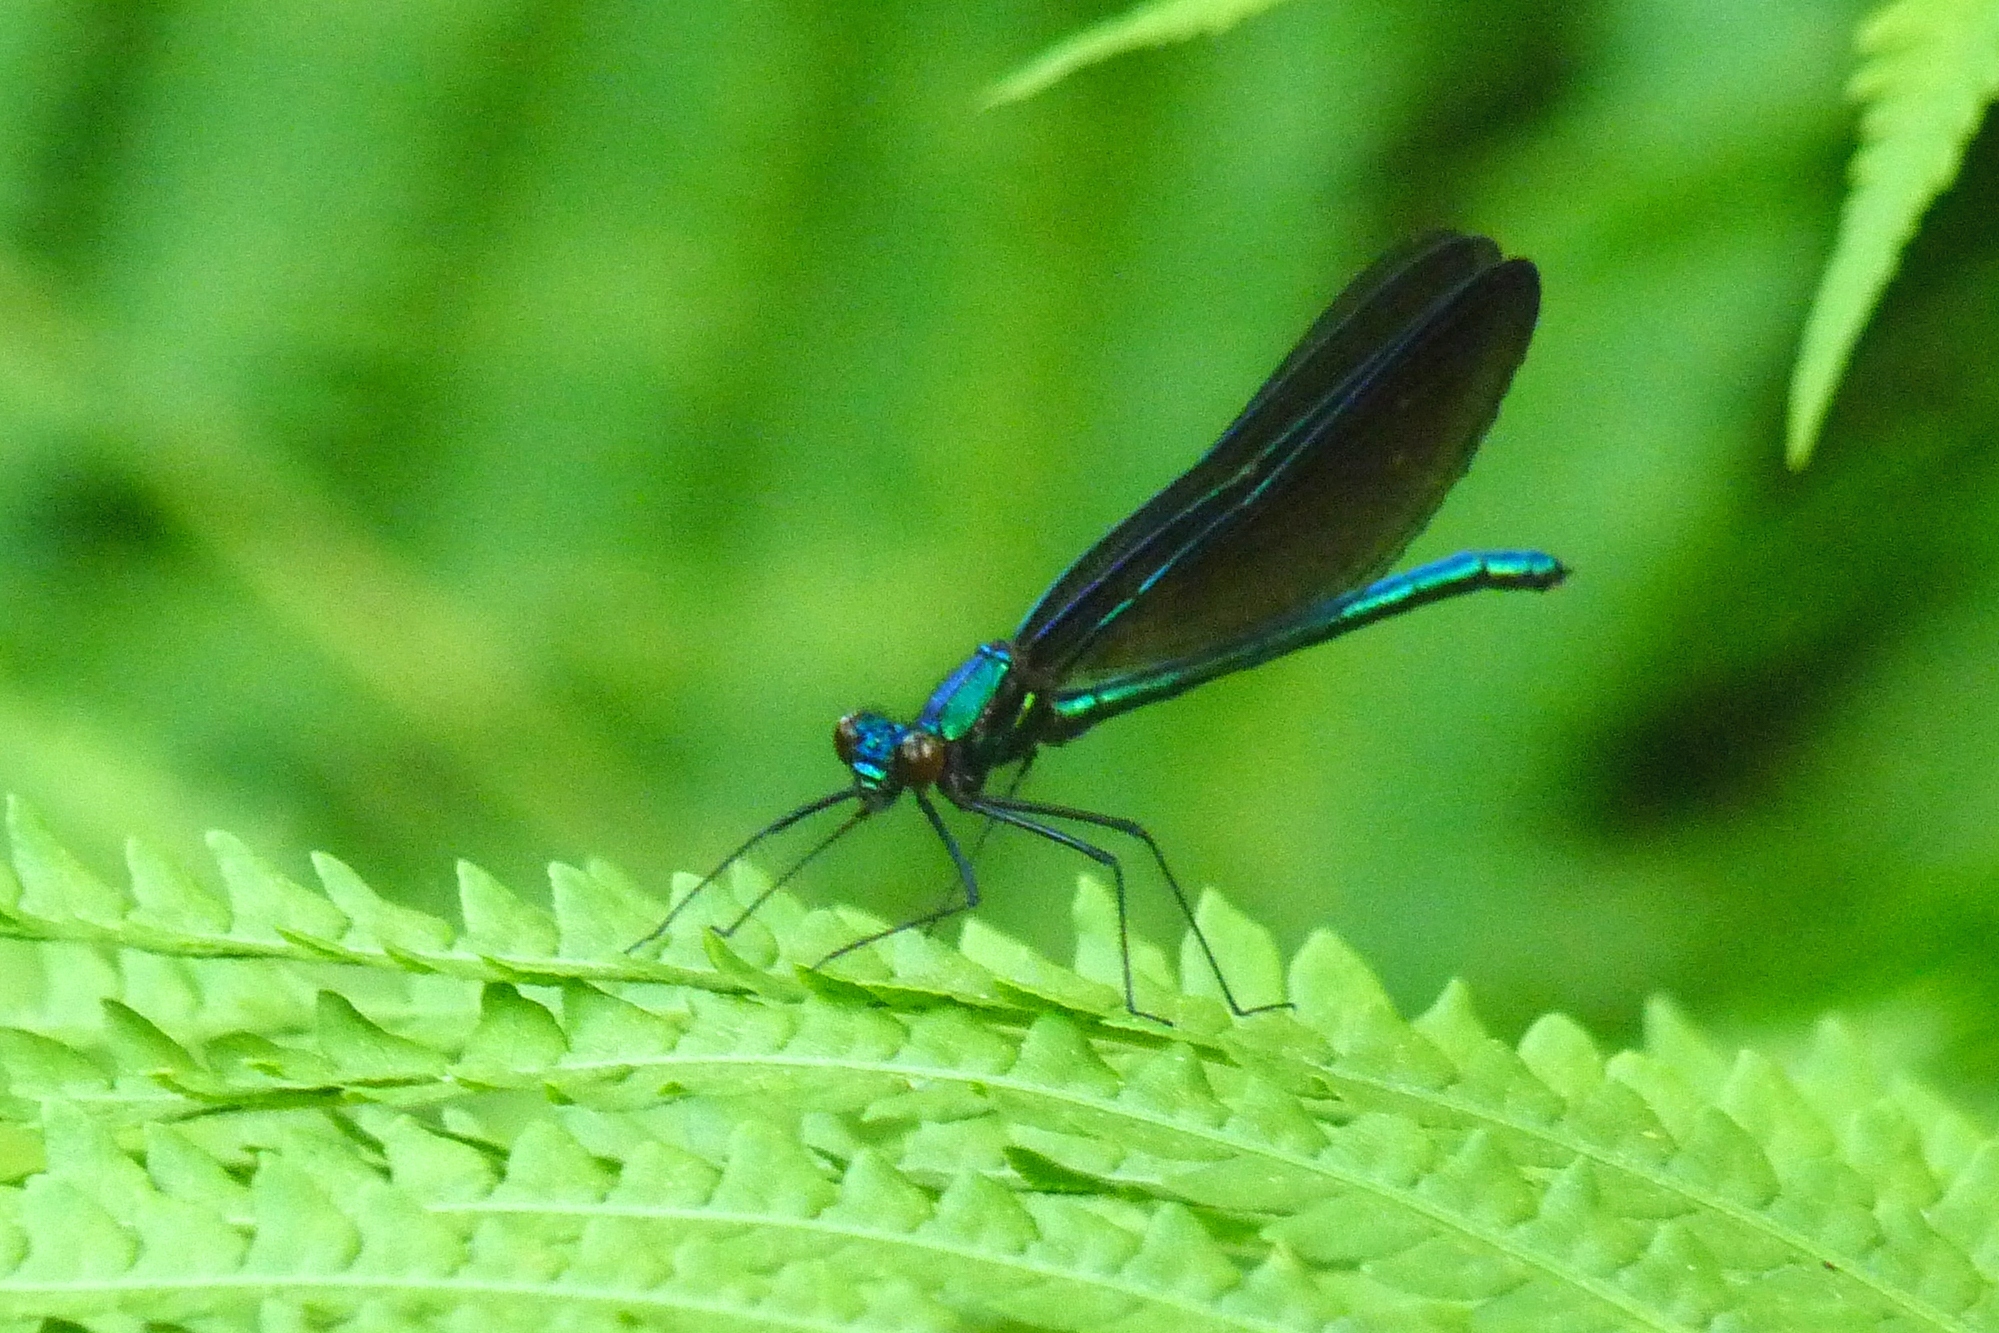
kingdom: Animalia
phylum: Arthropoda
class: Insecta
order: Odonata
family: Calopterygidae
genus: Calopteryx
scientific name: Calopteryx maculata
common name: Ebony jewelwing
